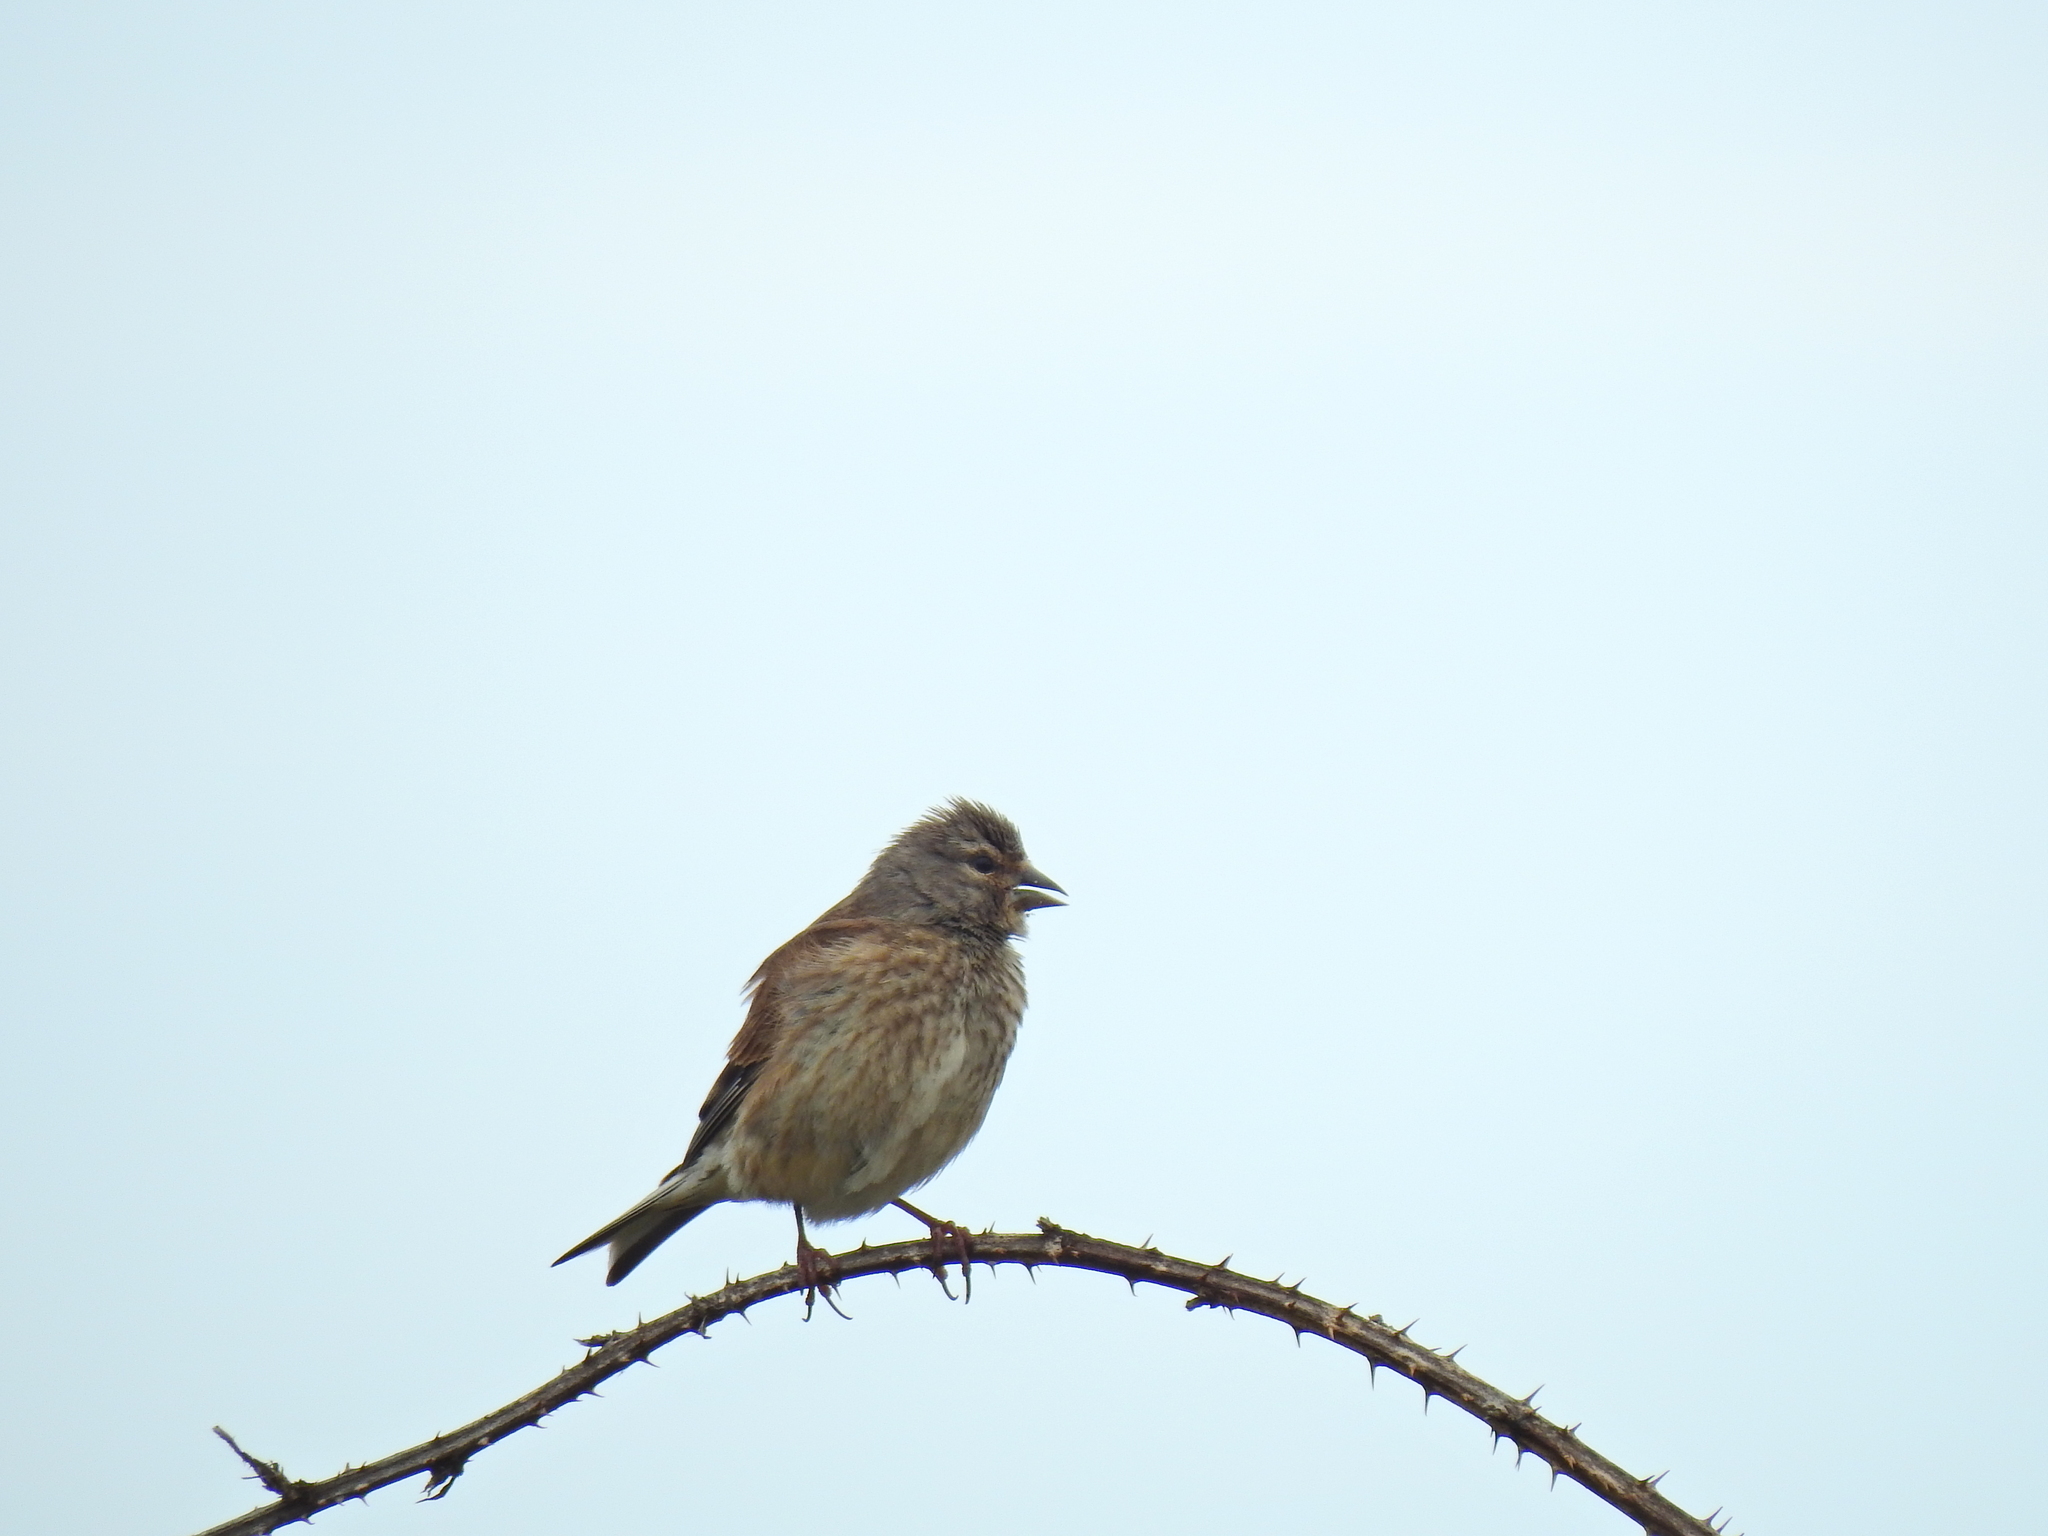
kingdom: Animalia
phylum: Chordata
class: Aves
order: Passeriformes
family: Fringillidae
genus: Linaria
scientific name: Linaria cannabina
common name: Common linnet
